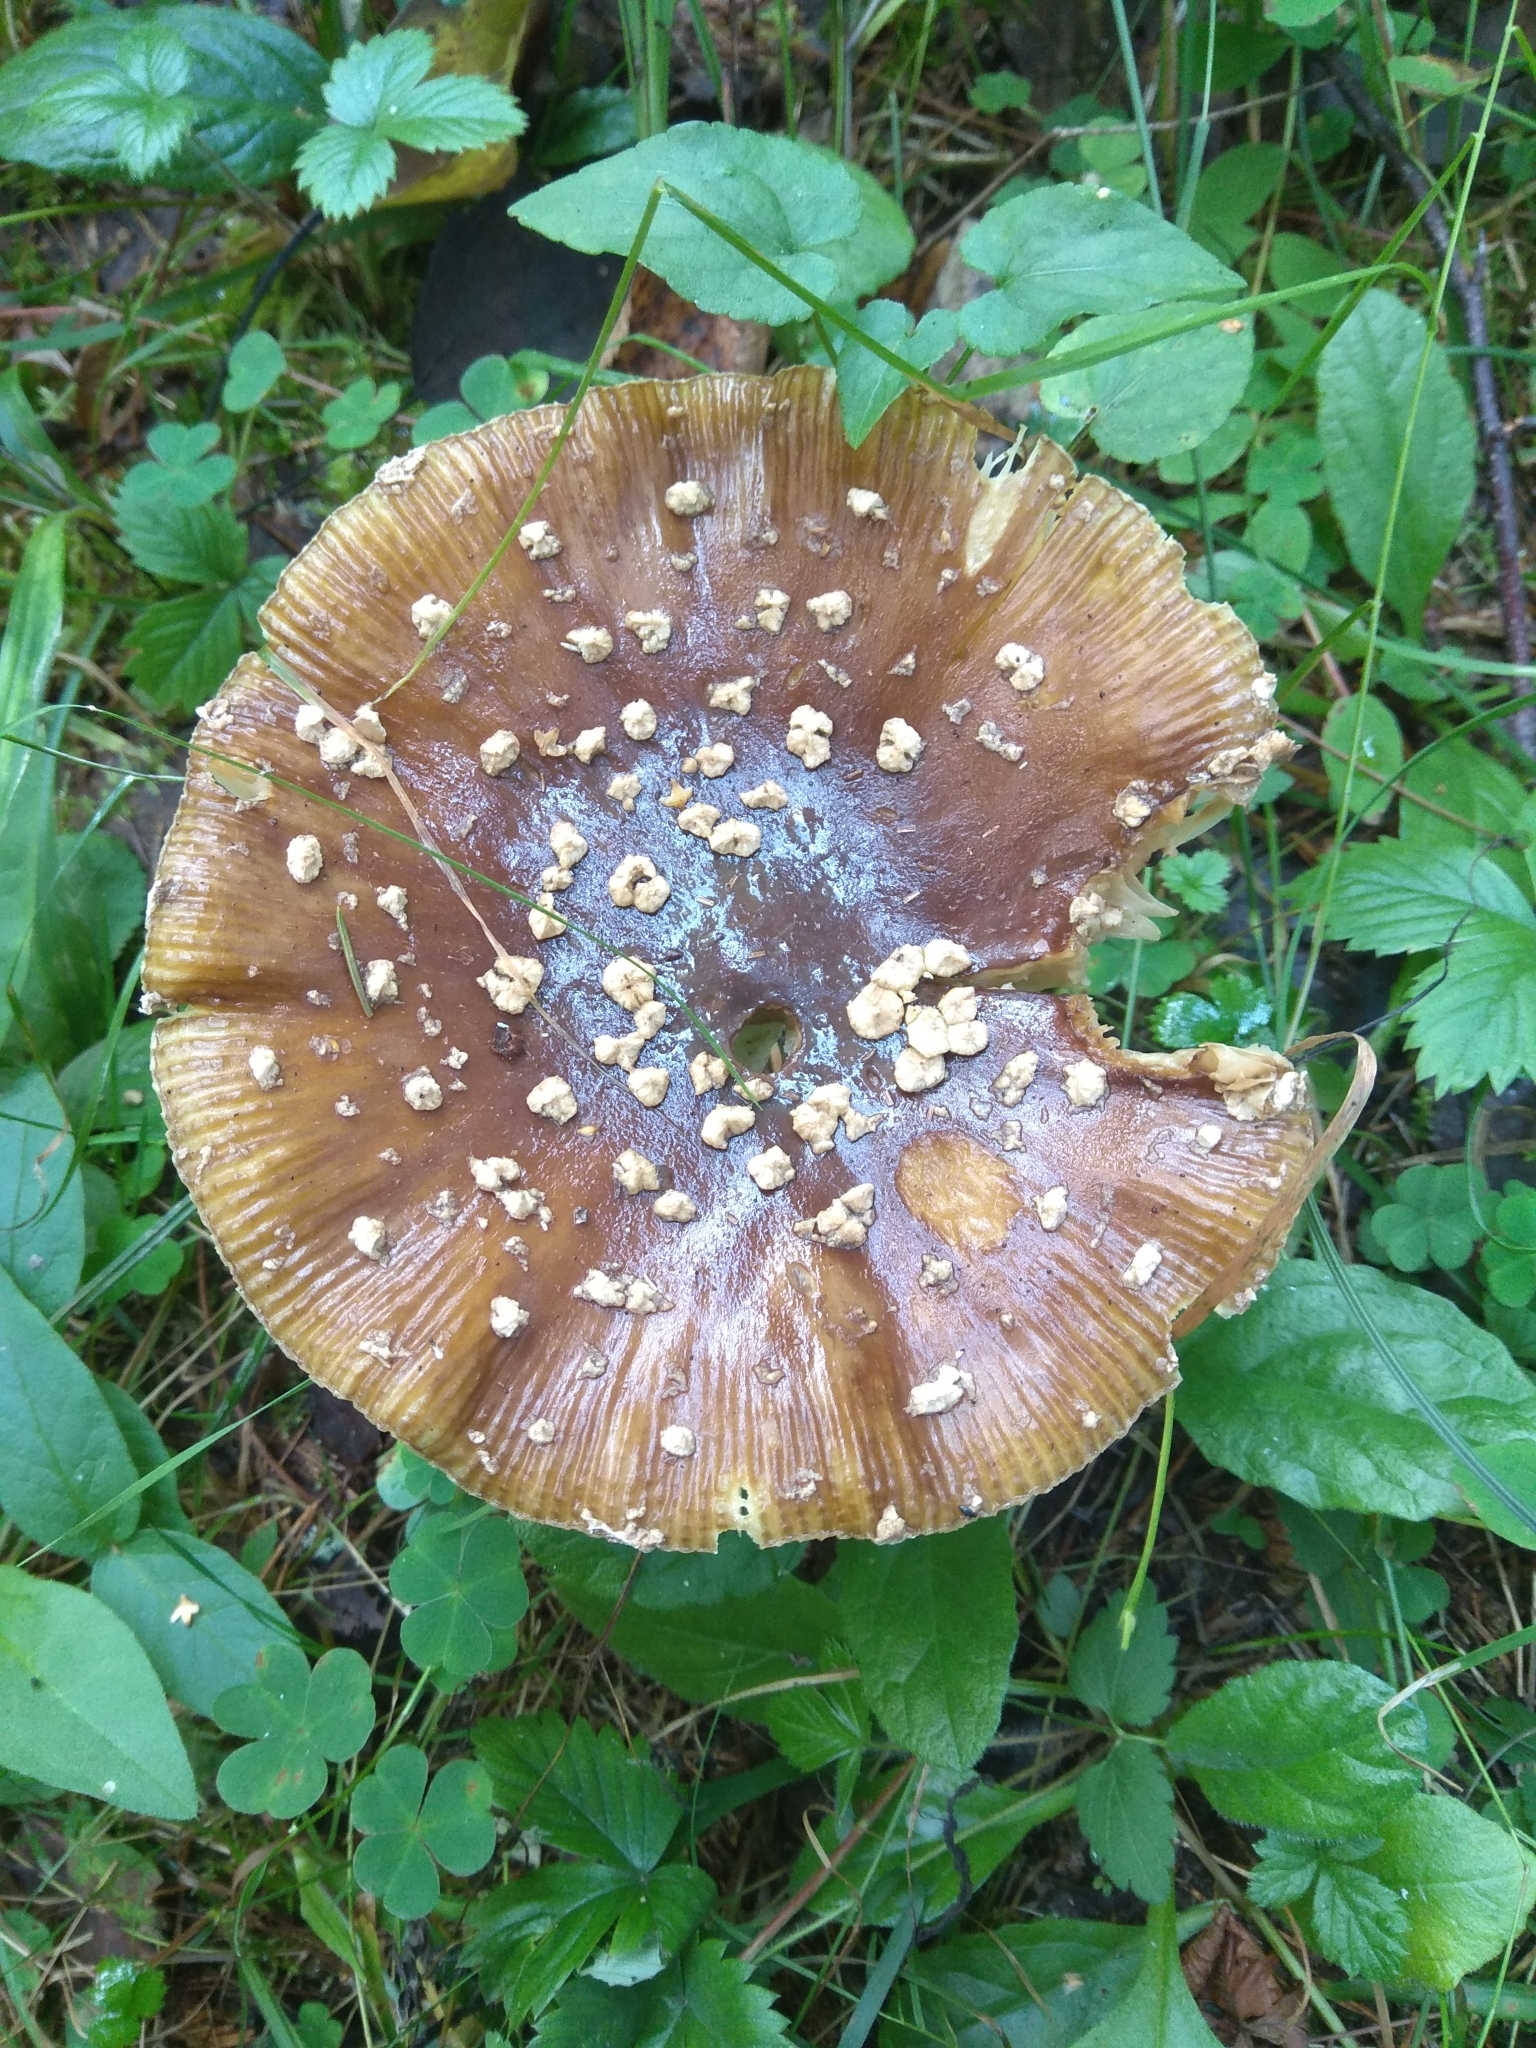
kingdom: Fungi
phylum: Basidiomycota
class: Agaricomycetes
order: Agaricales
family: Amanitaceae
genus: Amanita
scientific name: Amanita pantherina
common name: Panthercap
